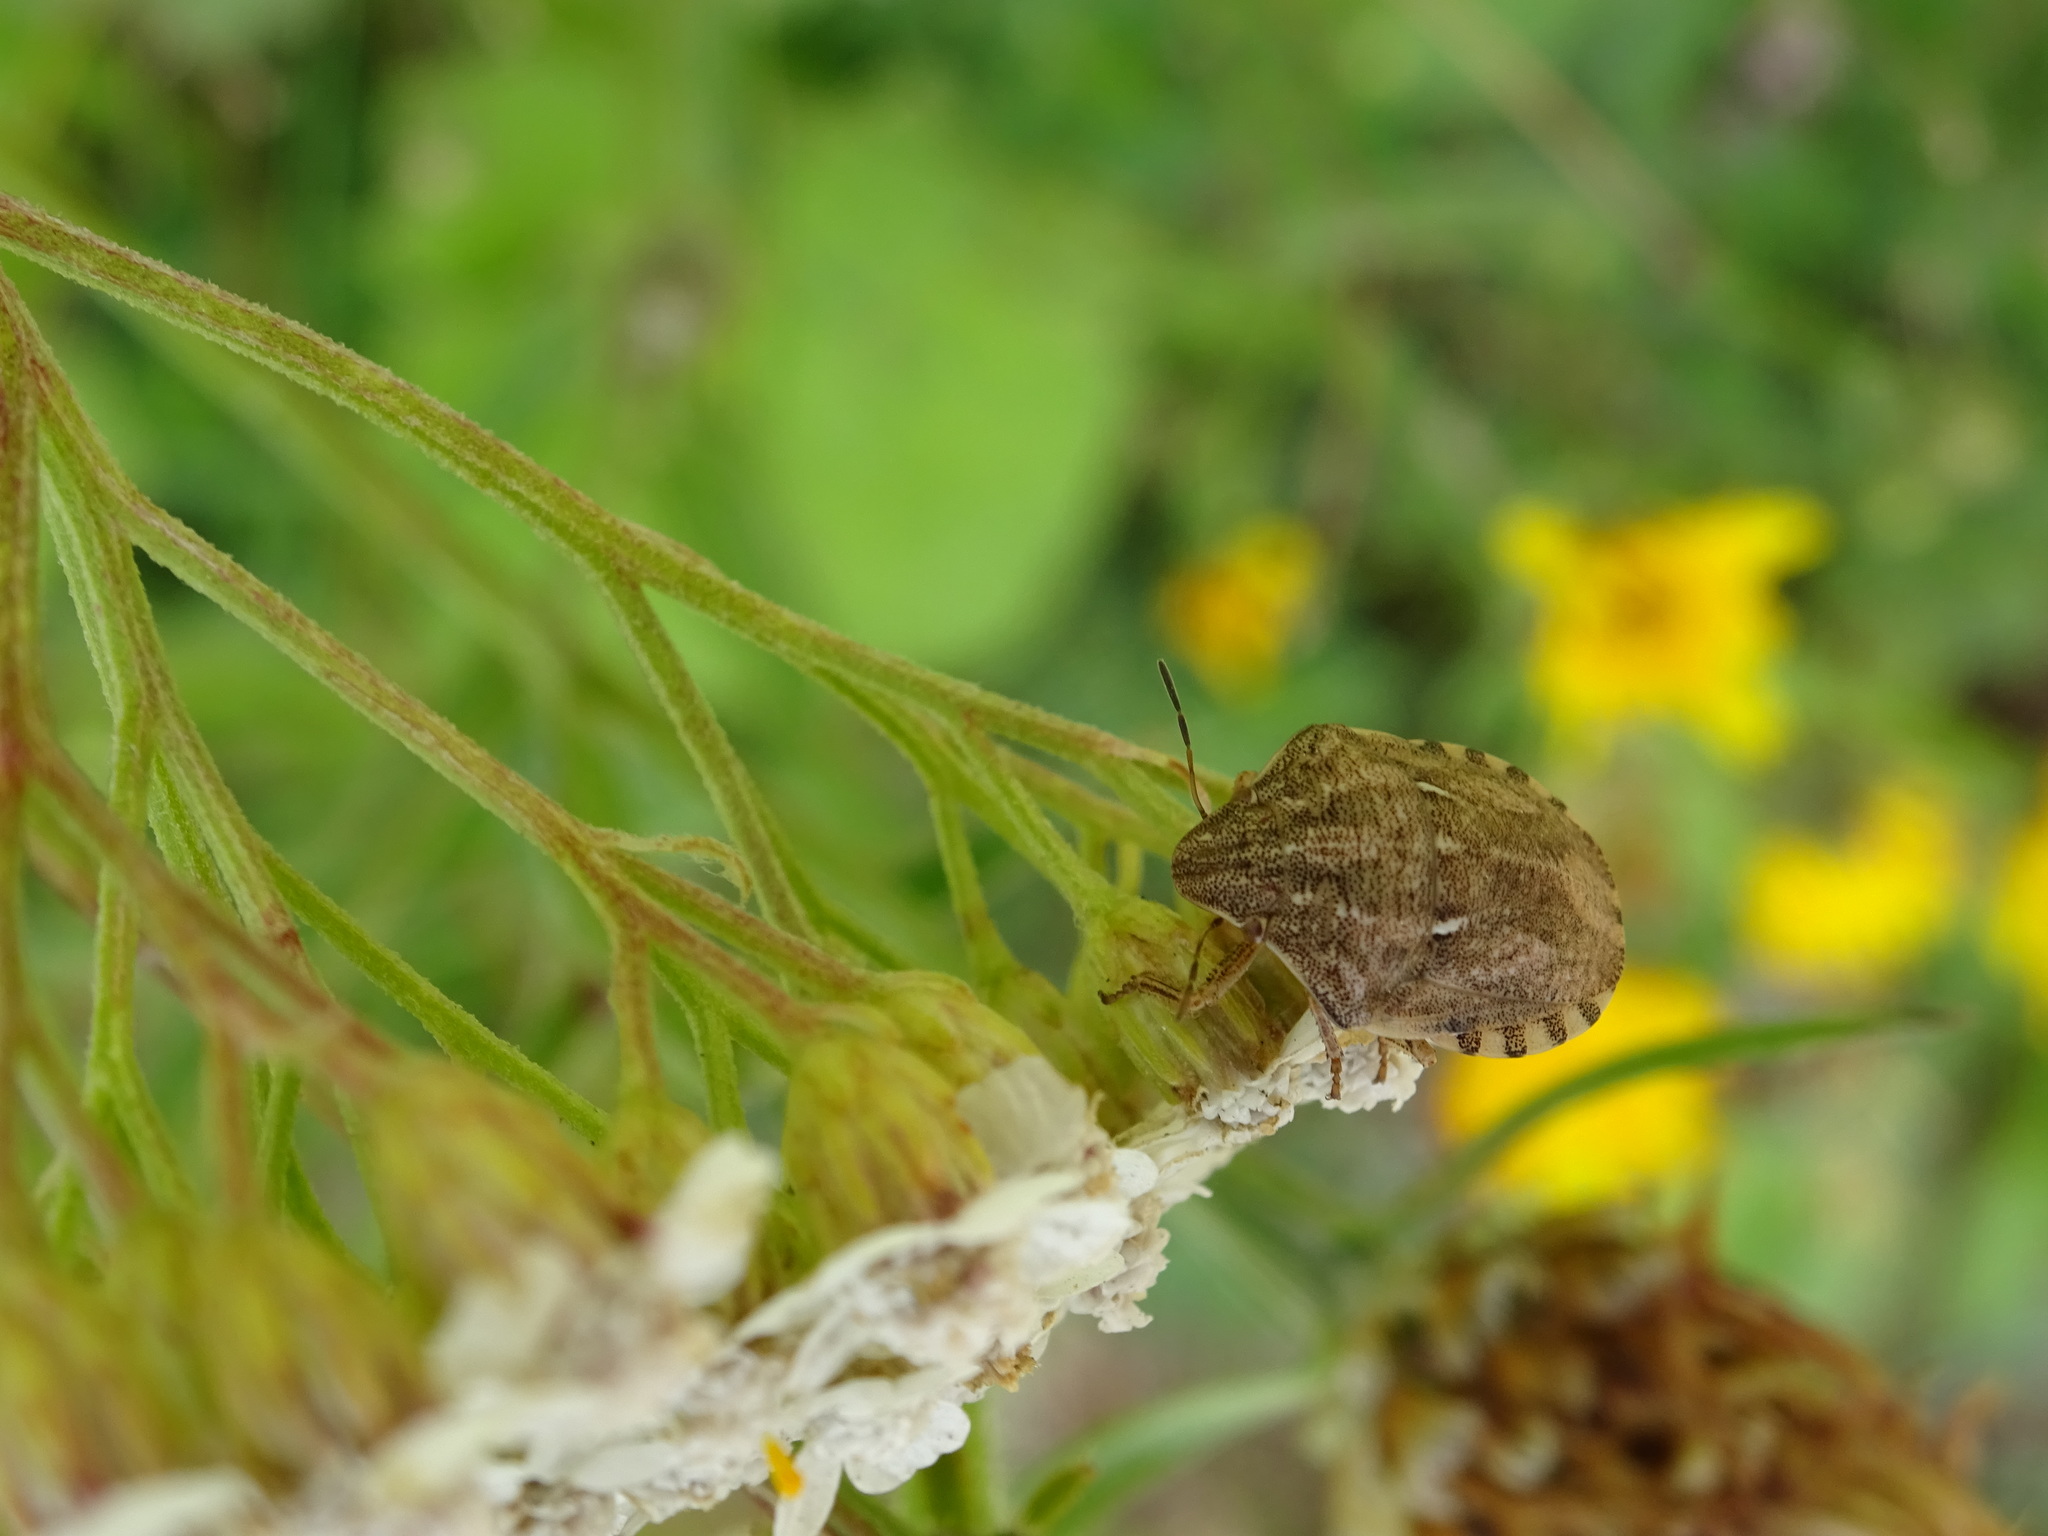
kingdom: Animalia
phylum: Arthropoda
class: Insecta
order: Hemiptera
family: Scutelleridae
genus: Eurygaster
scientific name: Eurygaster maura
